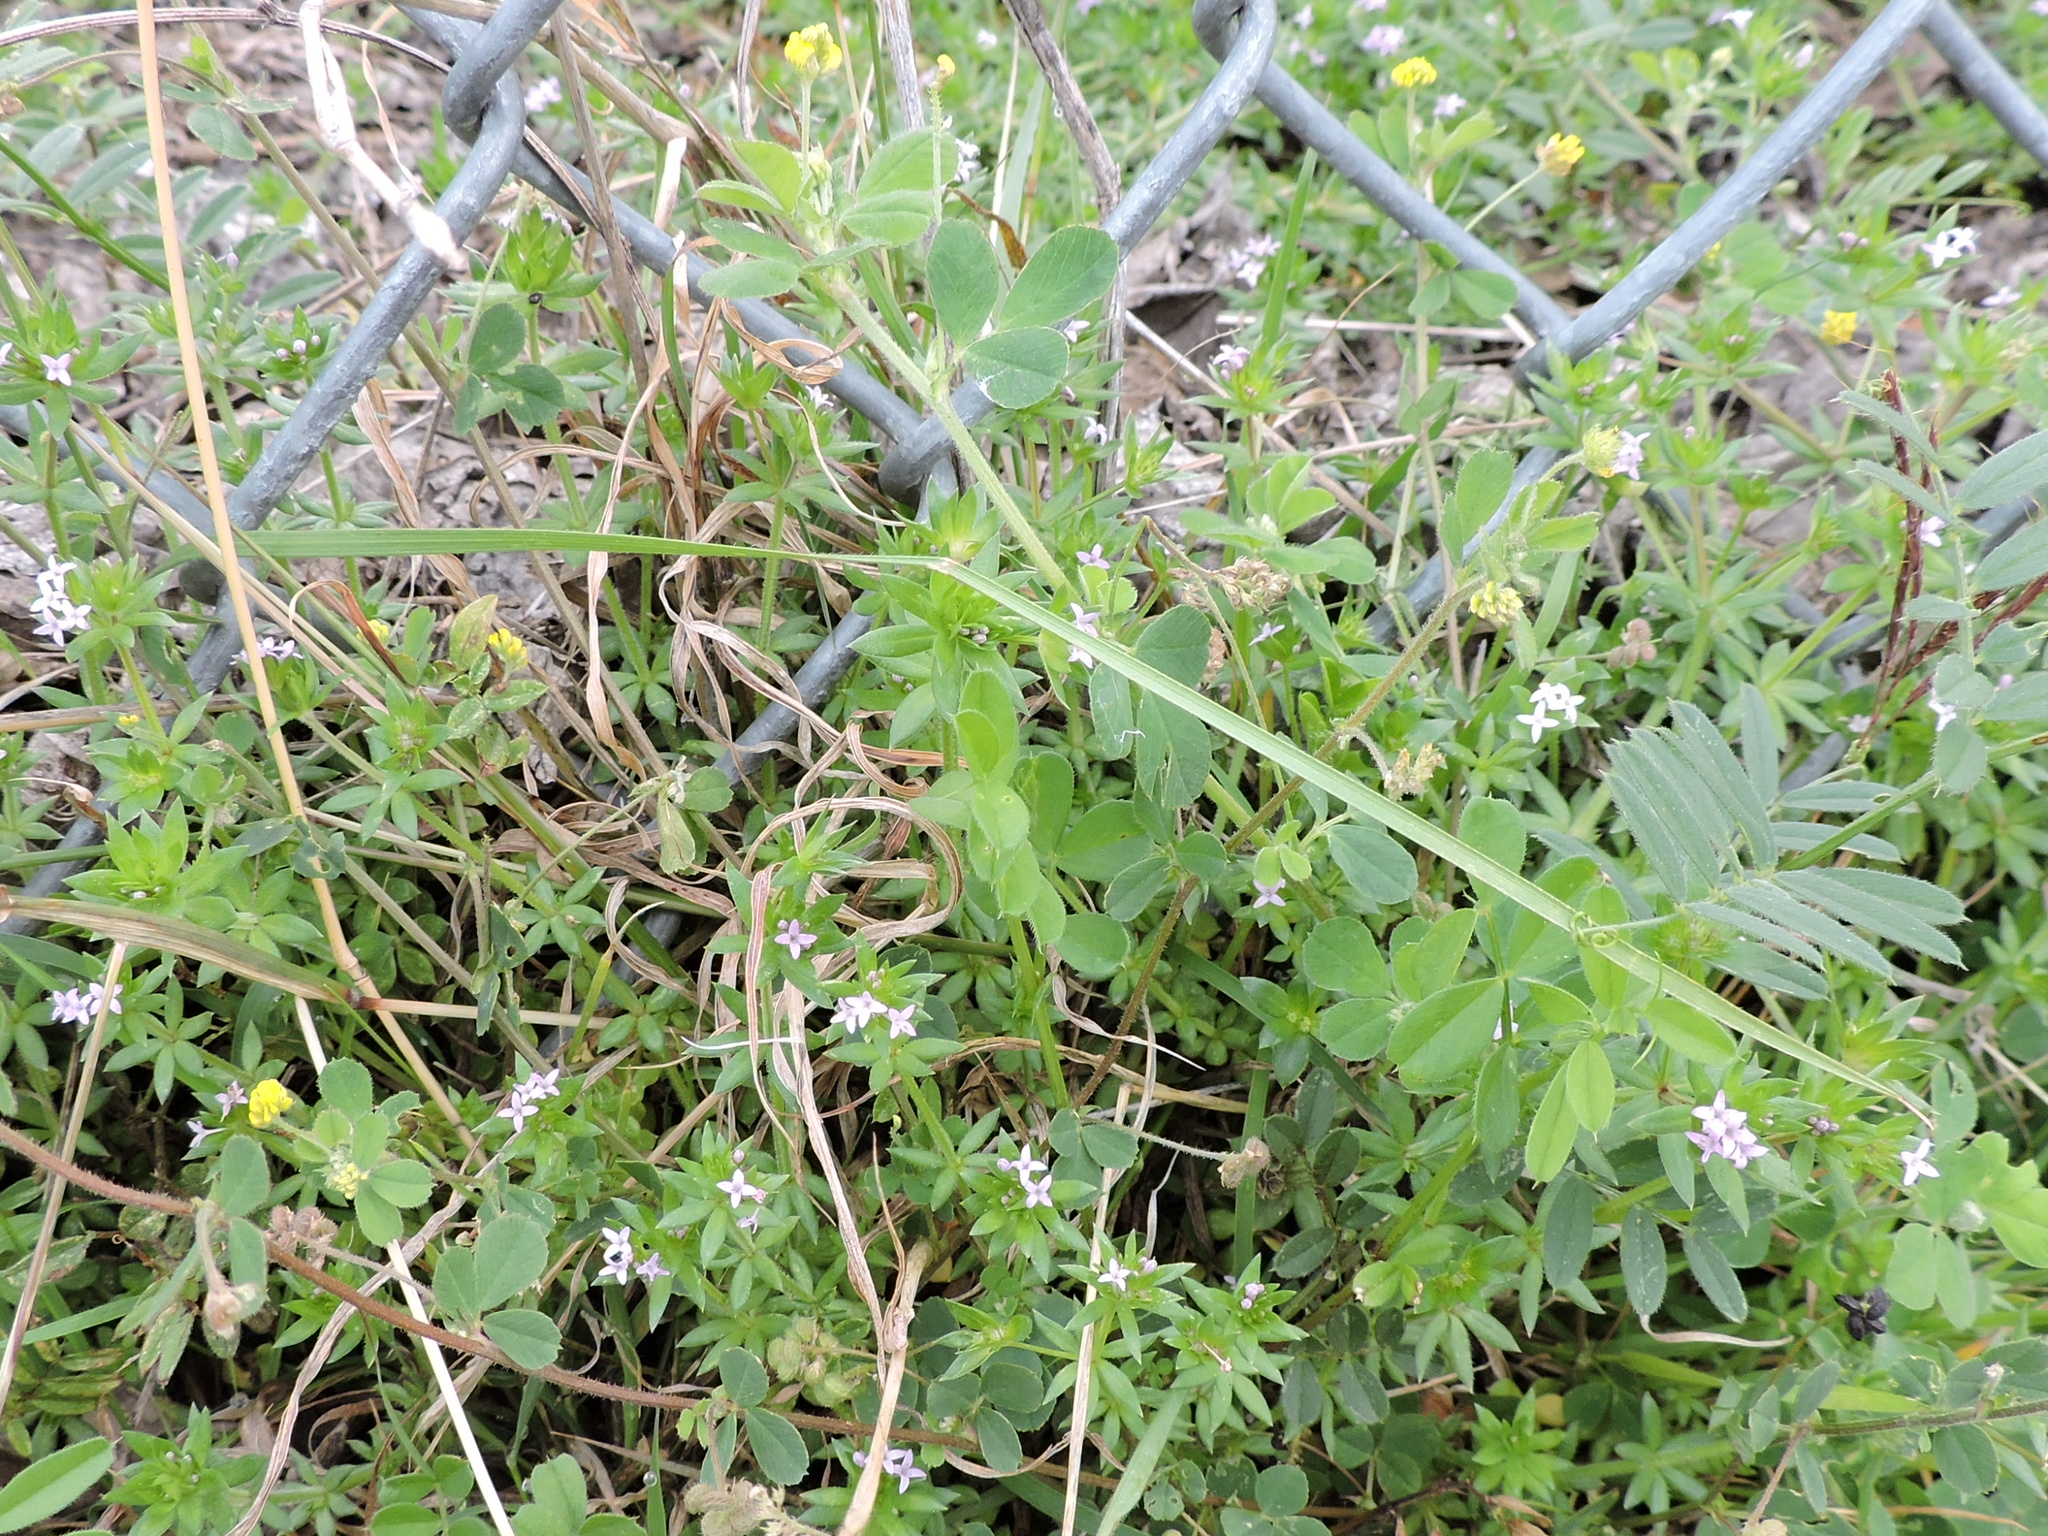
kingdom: Plantae
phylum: Tracheophyta
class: Magnoliopsida
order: Fabales
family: Fabaceae
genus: Medicago
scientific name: Medicago lupulina
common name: Black medick
